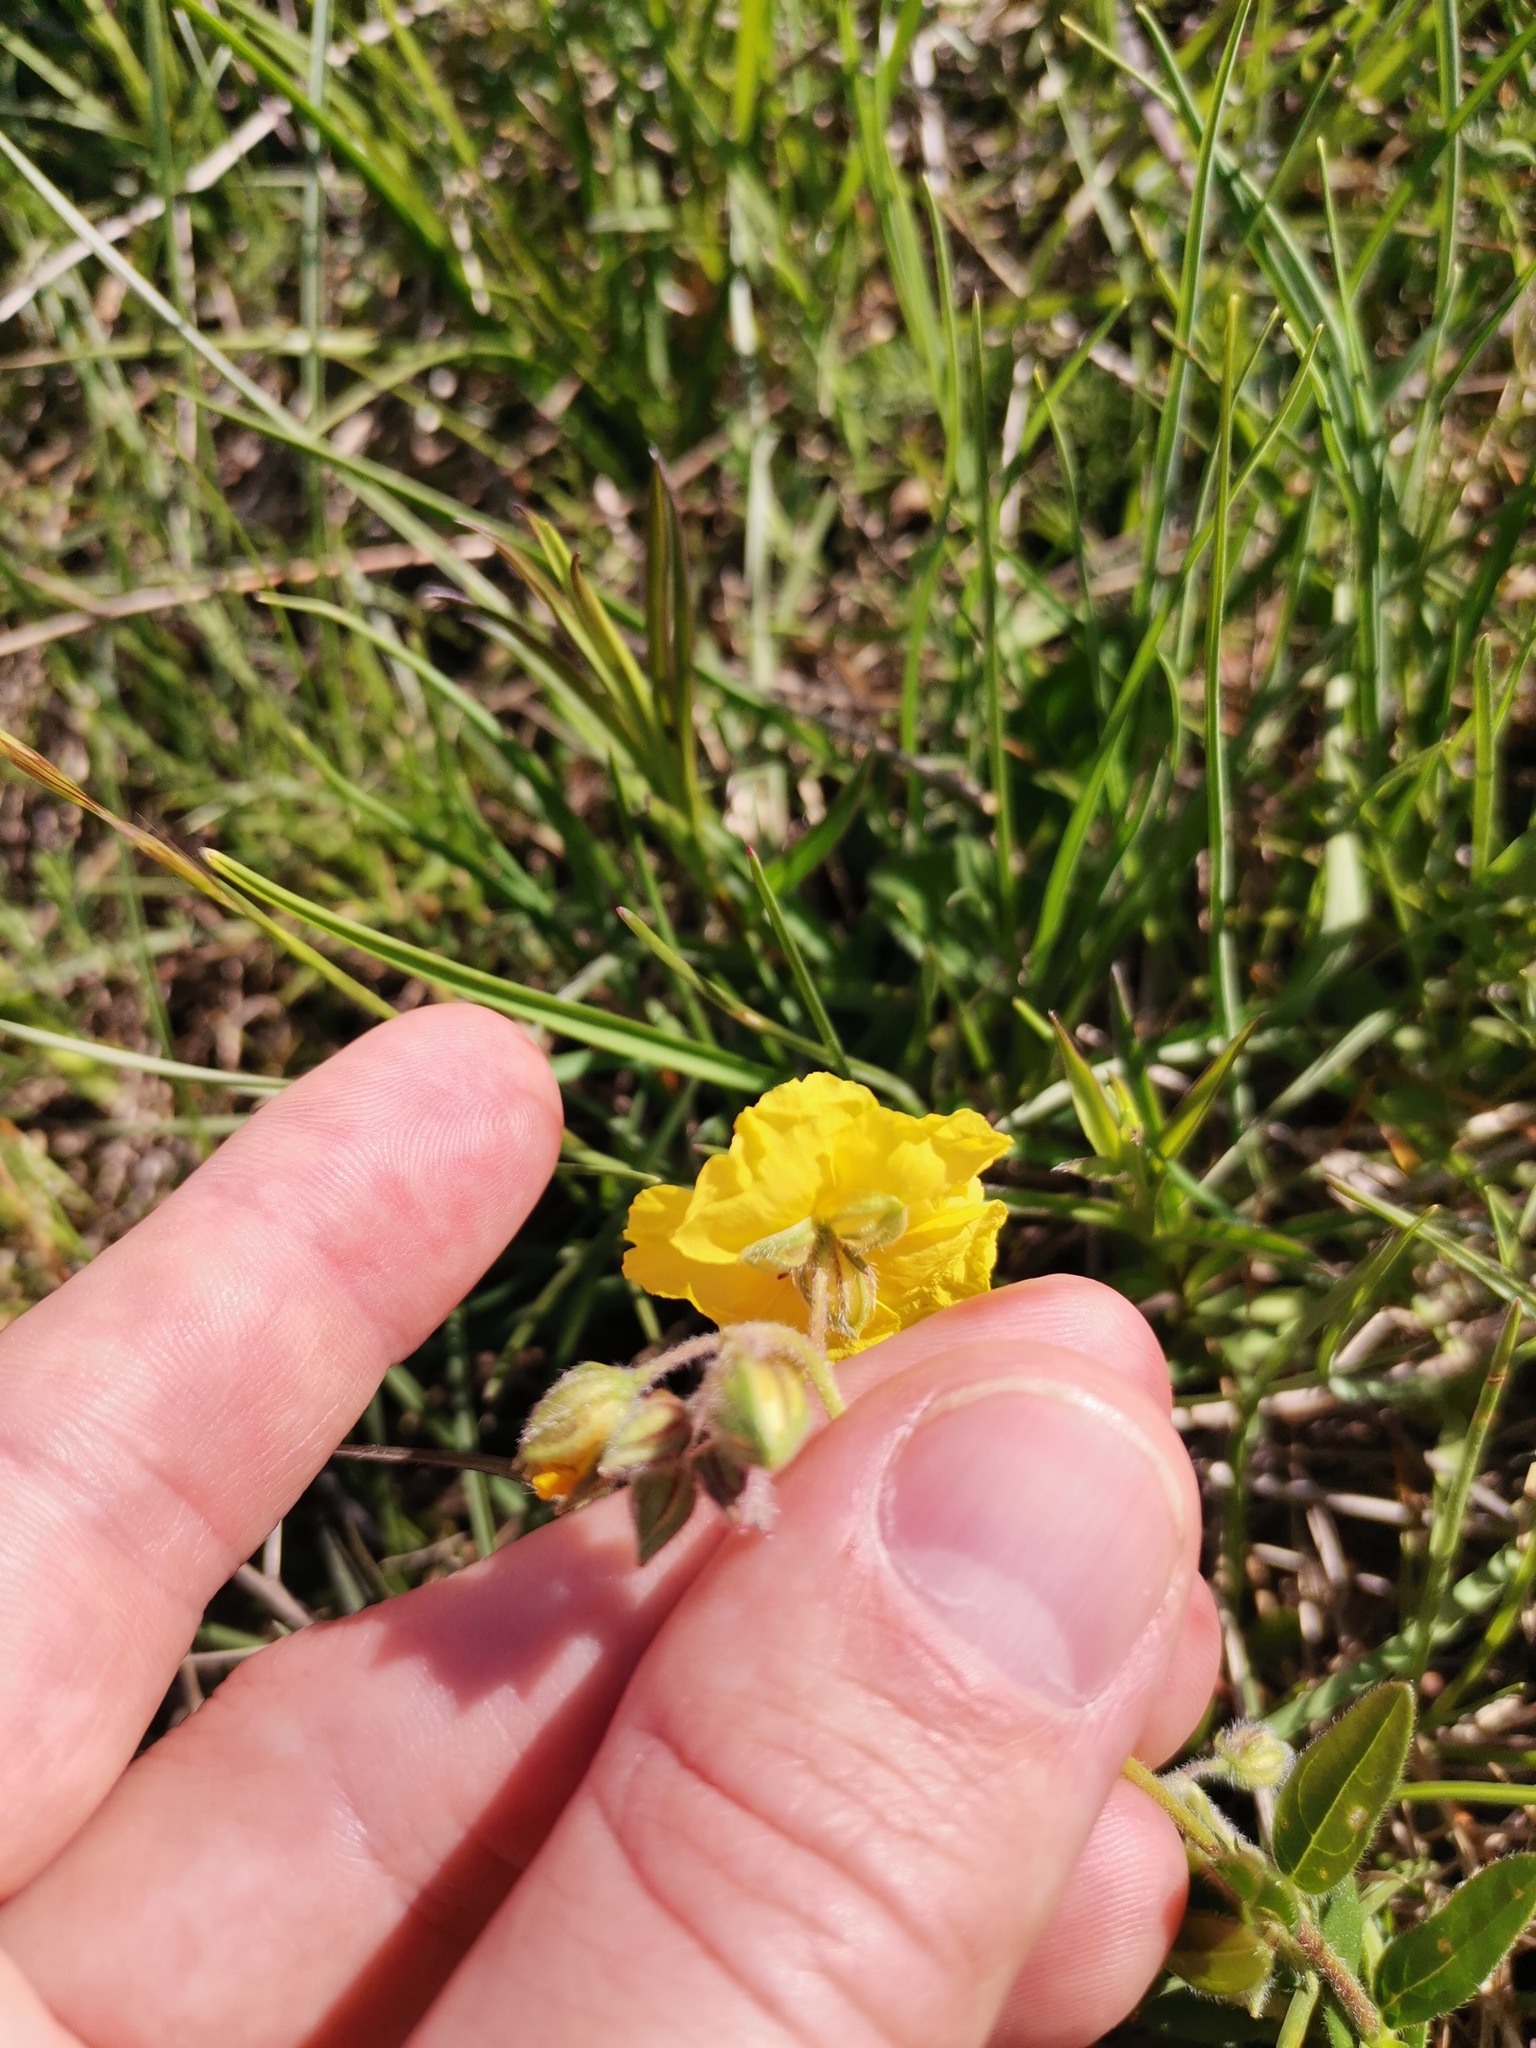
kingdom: Plantae
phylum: Tracheophyta
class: Magnoliopsida
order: Malvales
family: Cistaceae
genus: Helianthemum
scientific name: Helianthemum nummularium
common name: Common rock-rose
